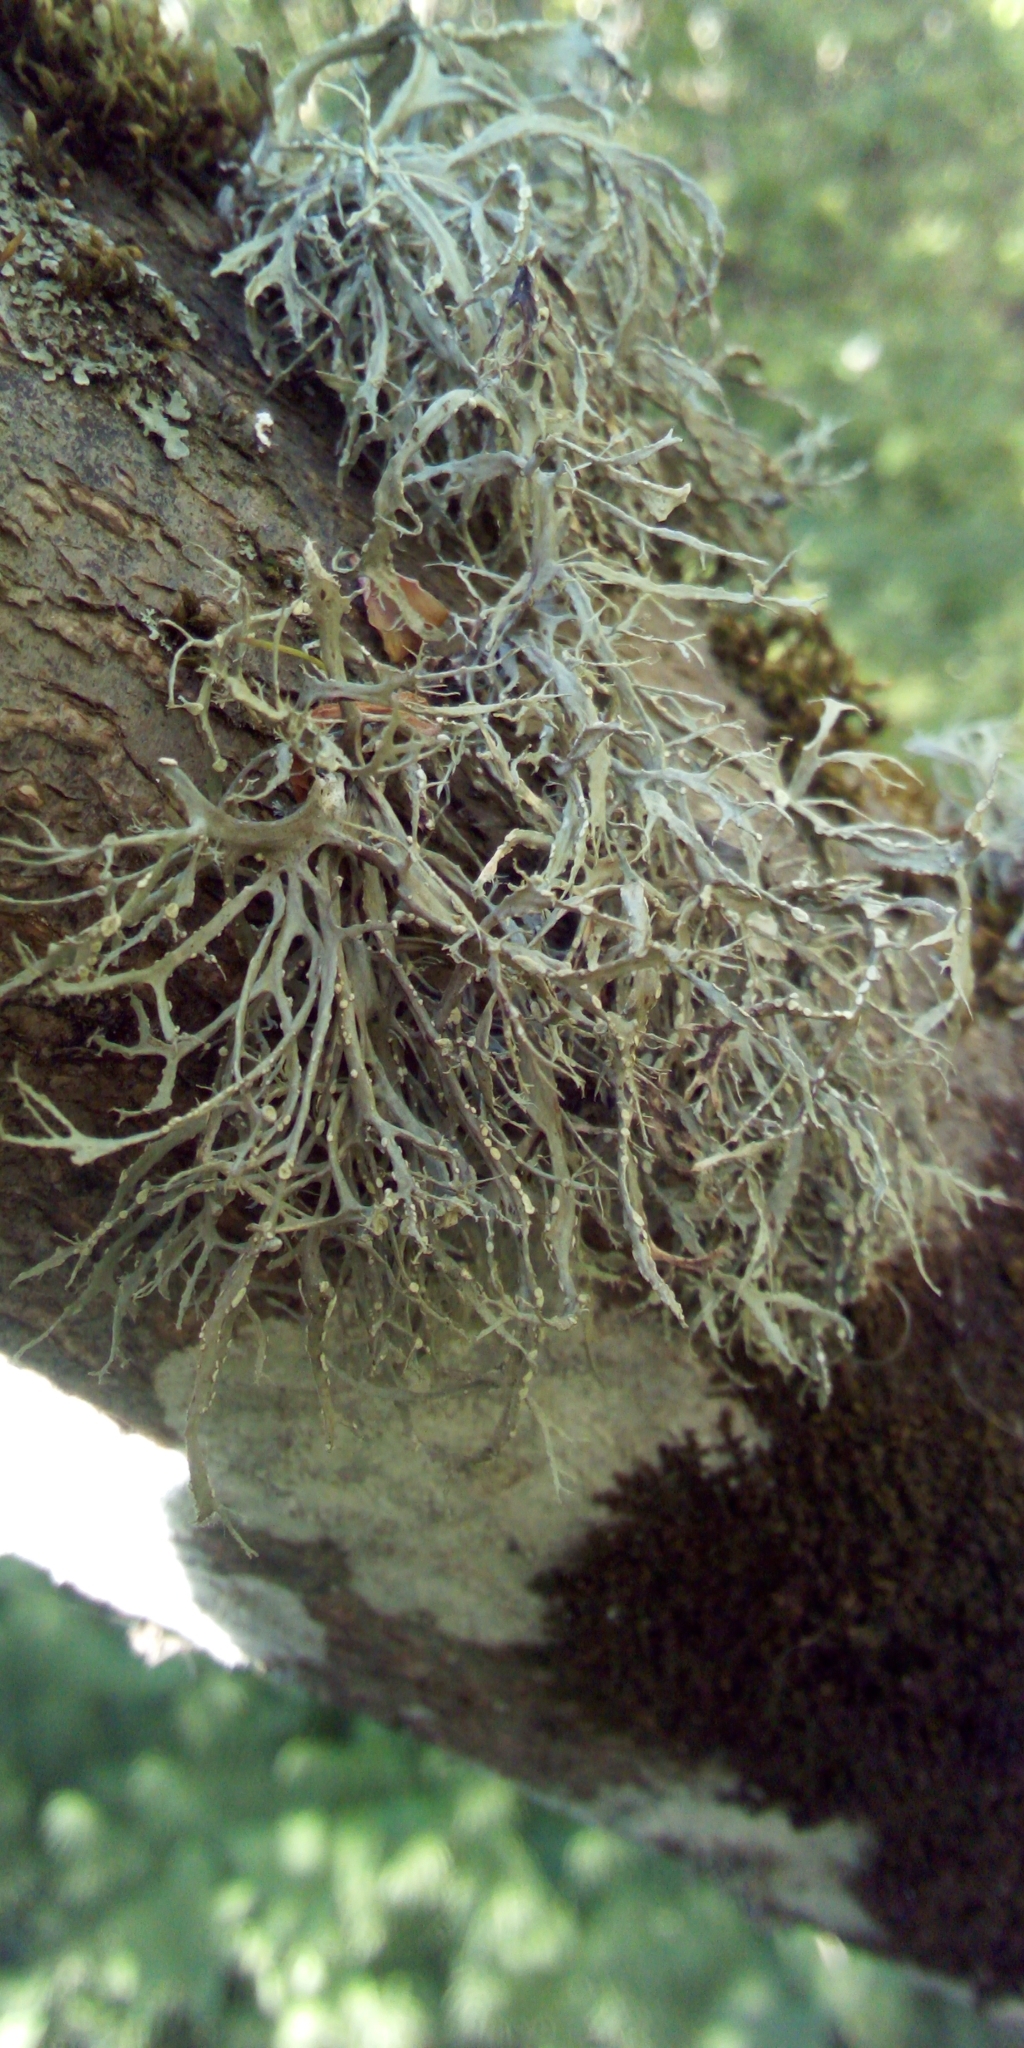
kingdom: Fungi
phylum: Ascomycota
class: Lecanoromycetes
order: Lecanorales
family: Ramalinaceae
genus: Ramalina
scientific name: Ramalina farinacea
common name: Farinose cartilage lichen
